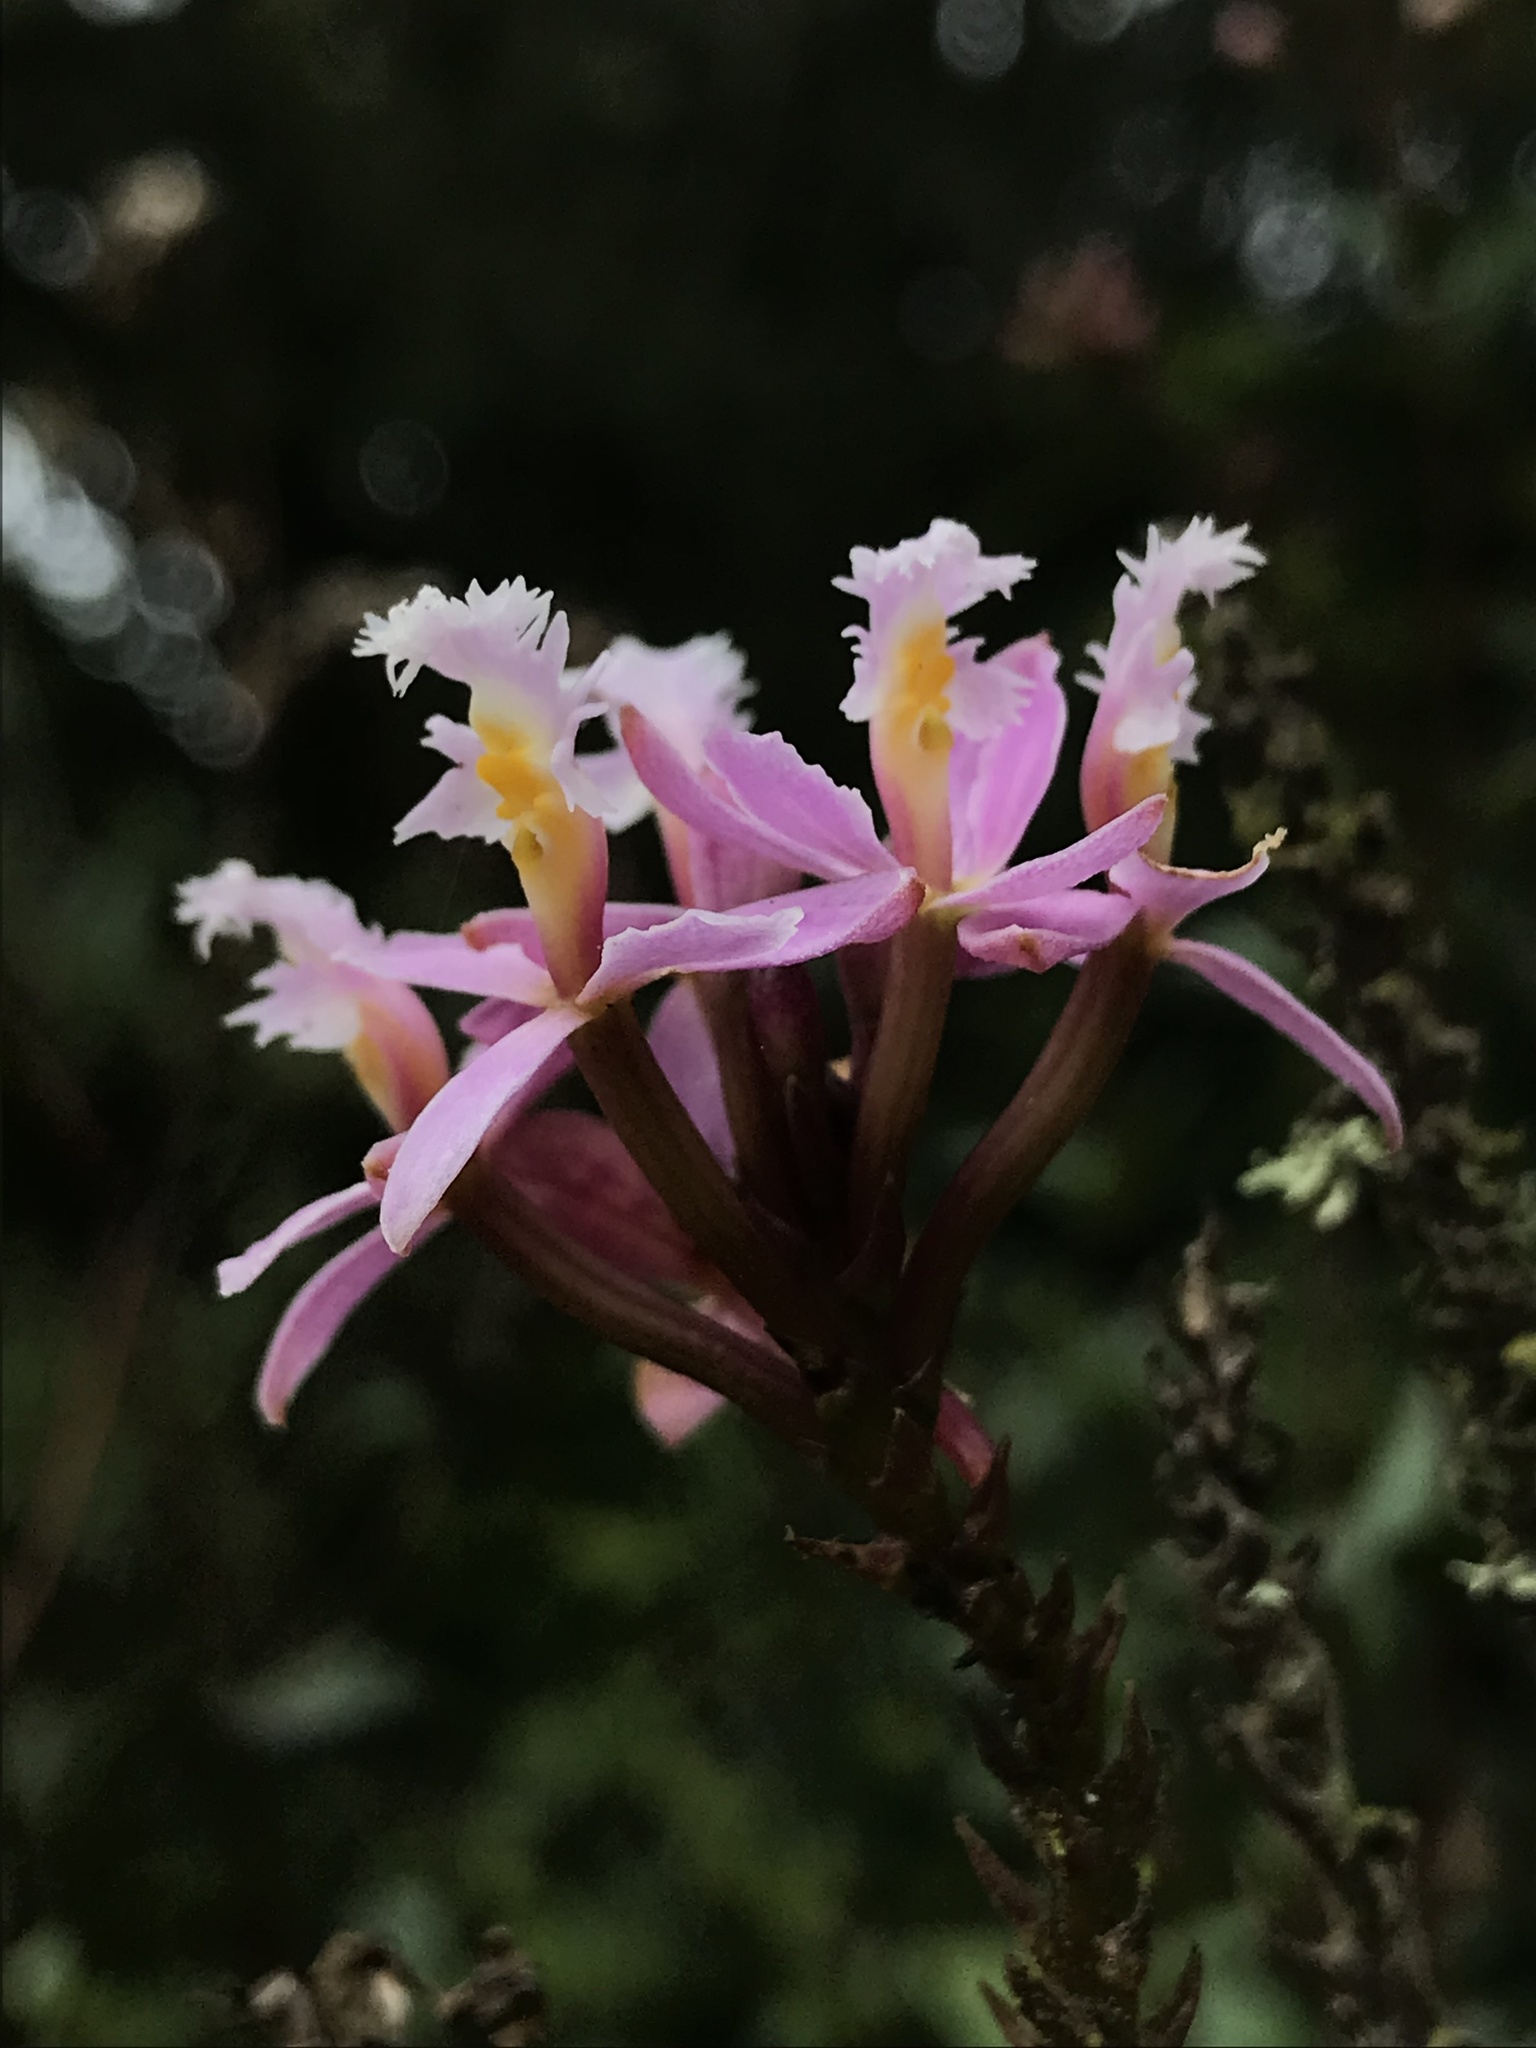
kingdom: Plantae
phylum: Tracheophyta
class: Liliopsida
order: Asparagales
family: Orchidaceae
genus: Epidendrum
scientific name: Epidendrum arachnoglossum
